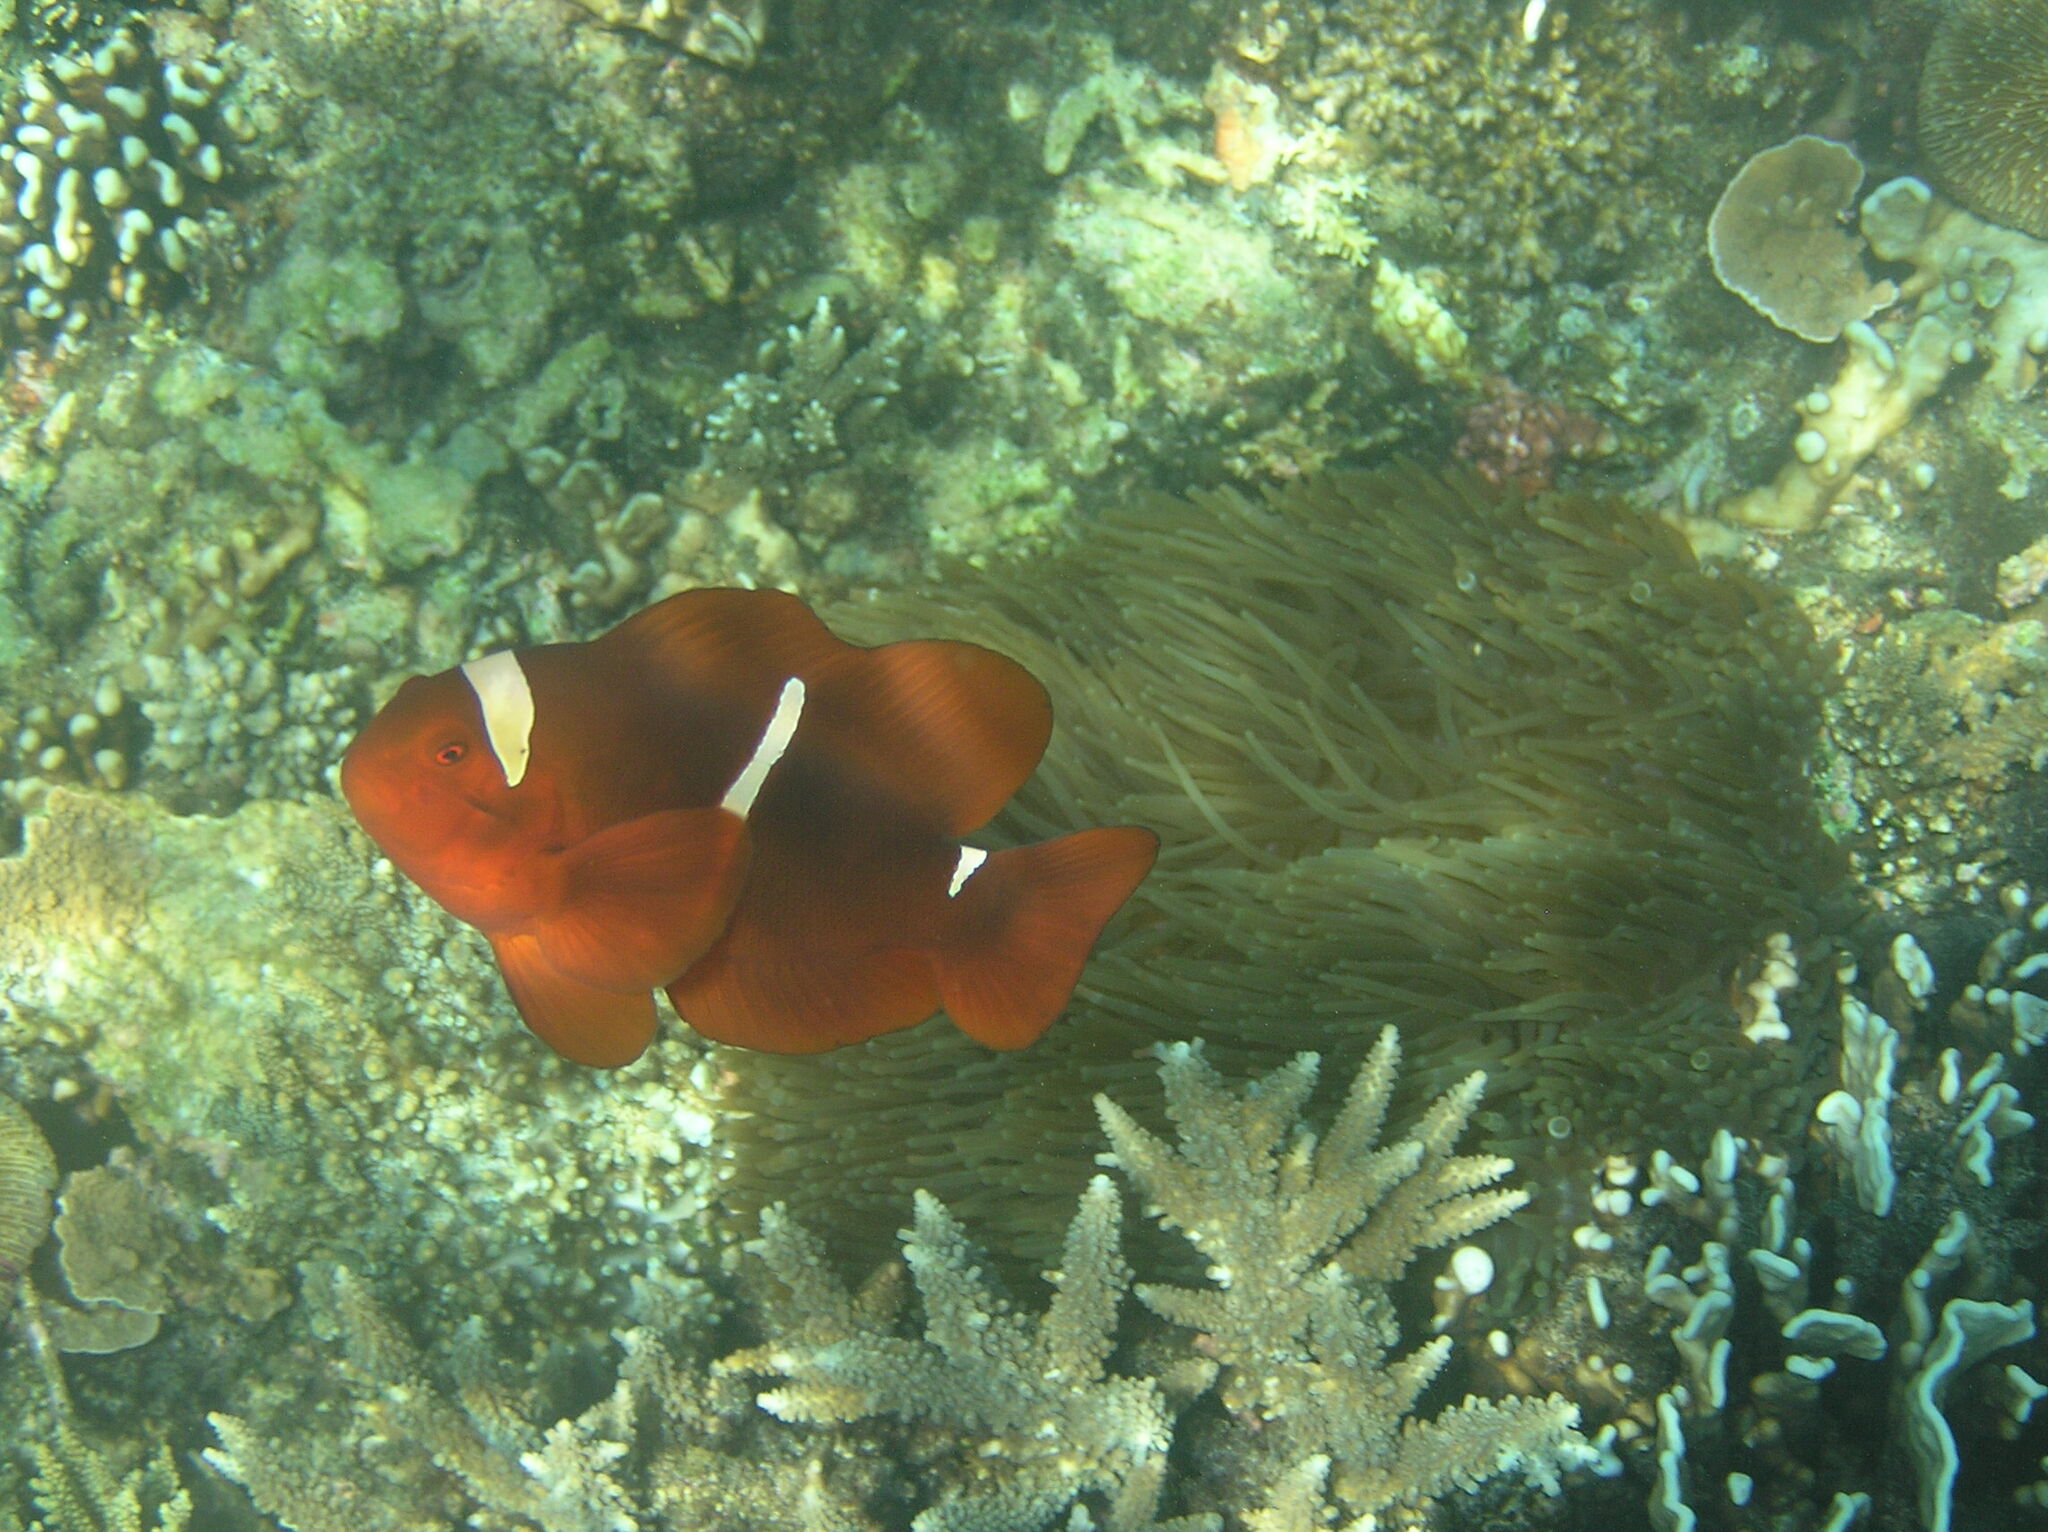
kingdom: Animalia
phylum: Chordata
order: Perciformes
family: Pomacentridae
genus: Premnas
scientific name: Premnas biaculeatus
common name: Spinecheek anemonefish
